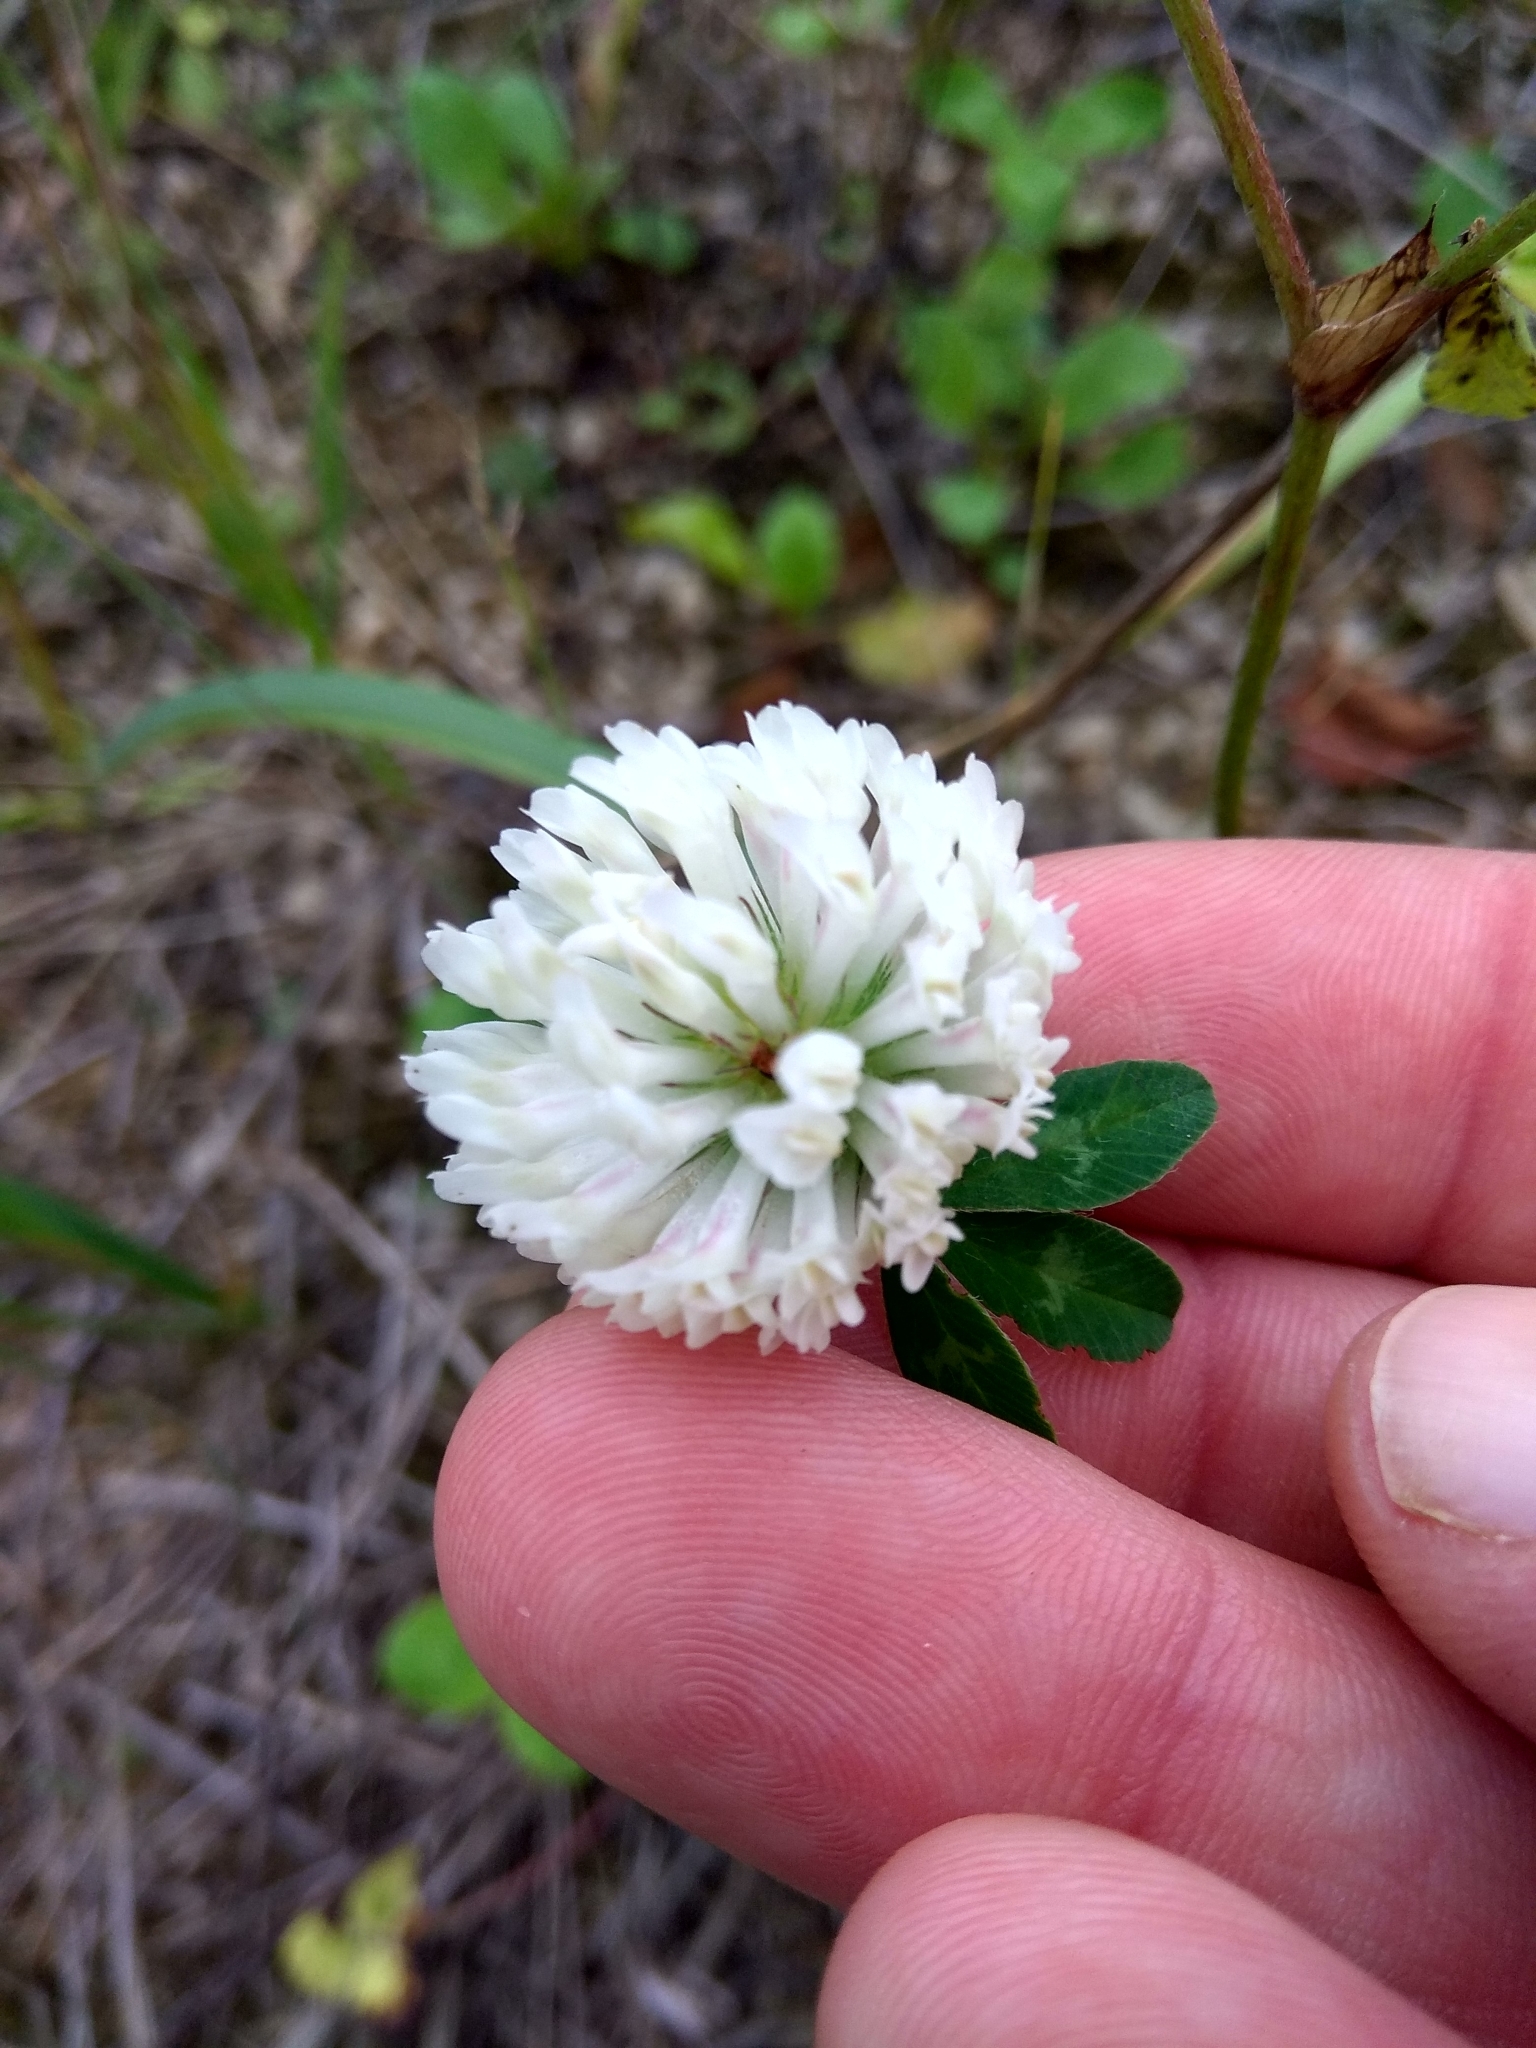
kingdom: Plantae
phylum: Tracheophyta
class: Magnoliopsida
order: Fabales
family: Fabaceae
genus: Trifolium
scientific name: Trifolium pratense
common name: Red clover
